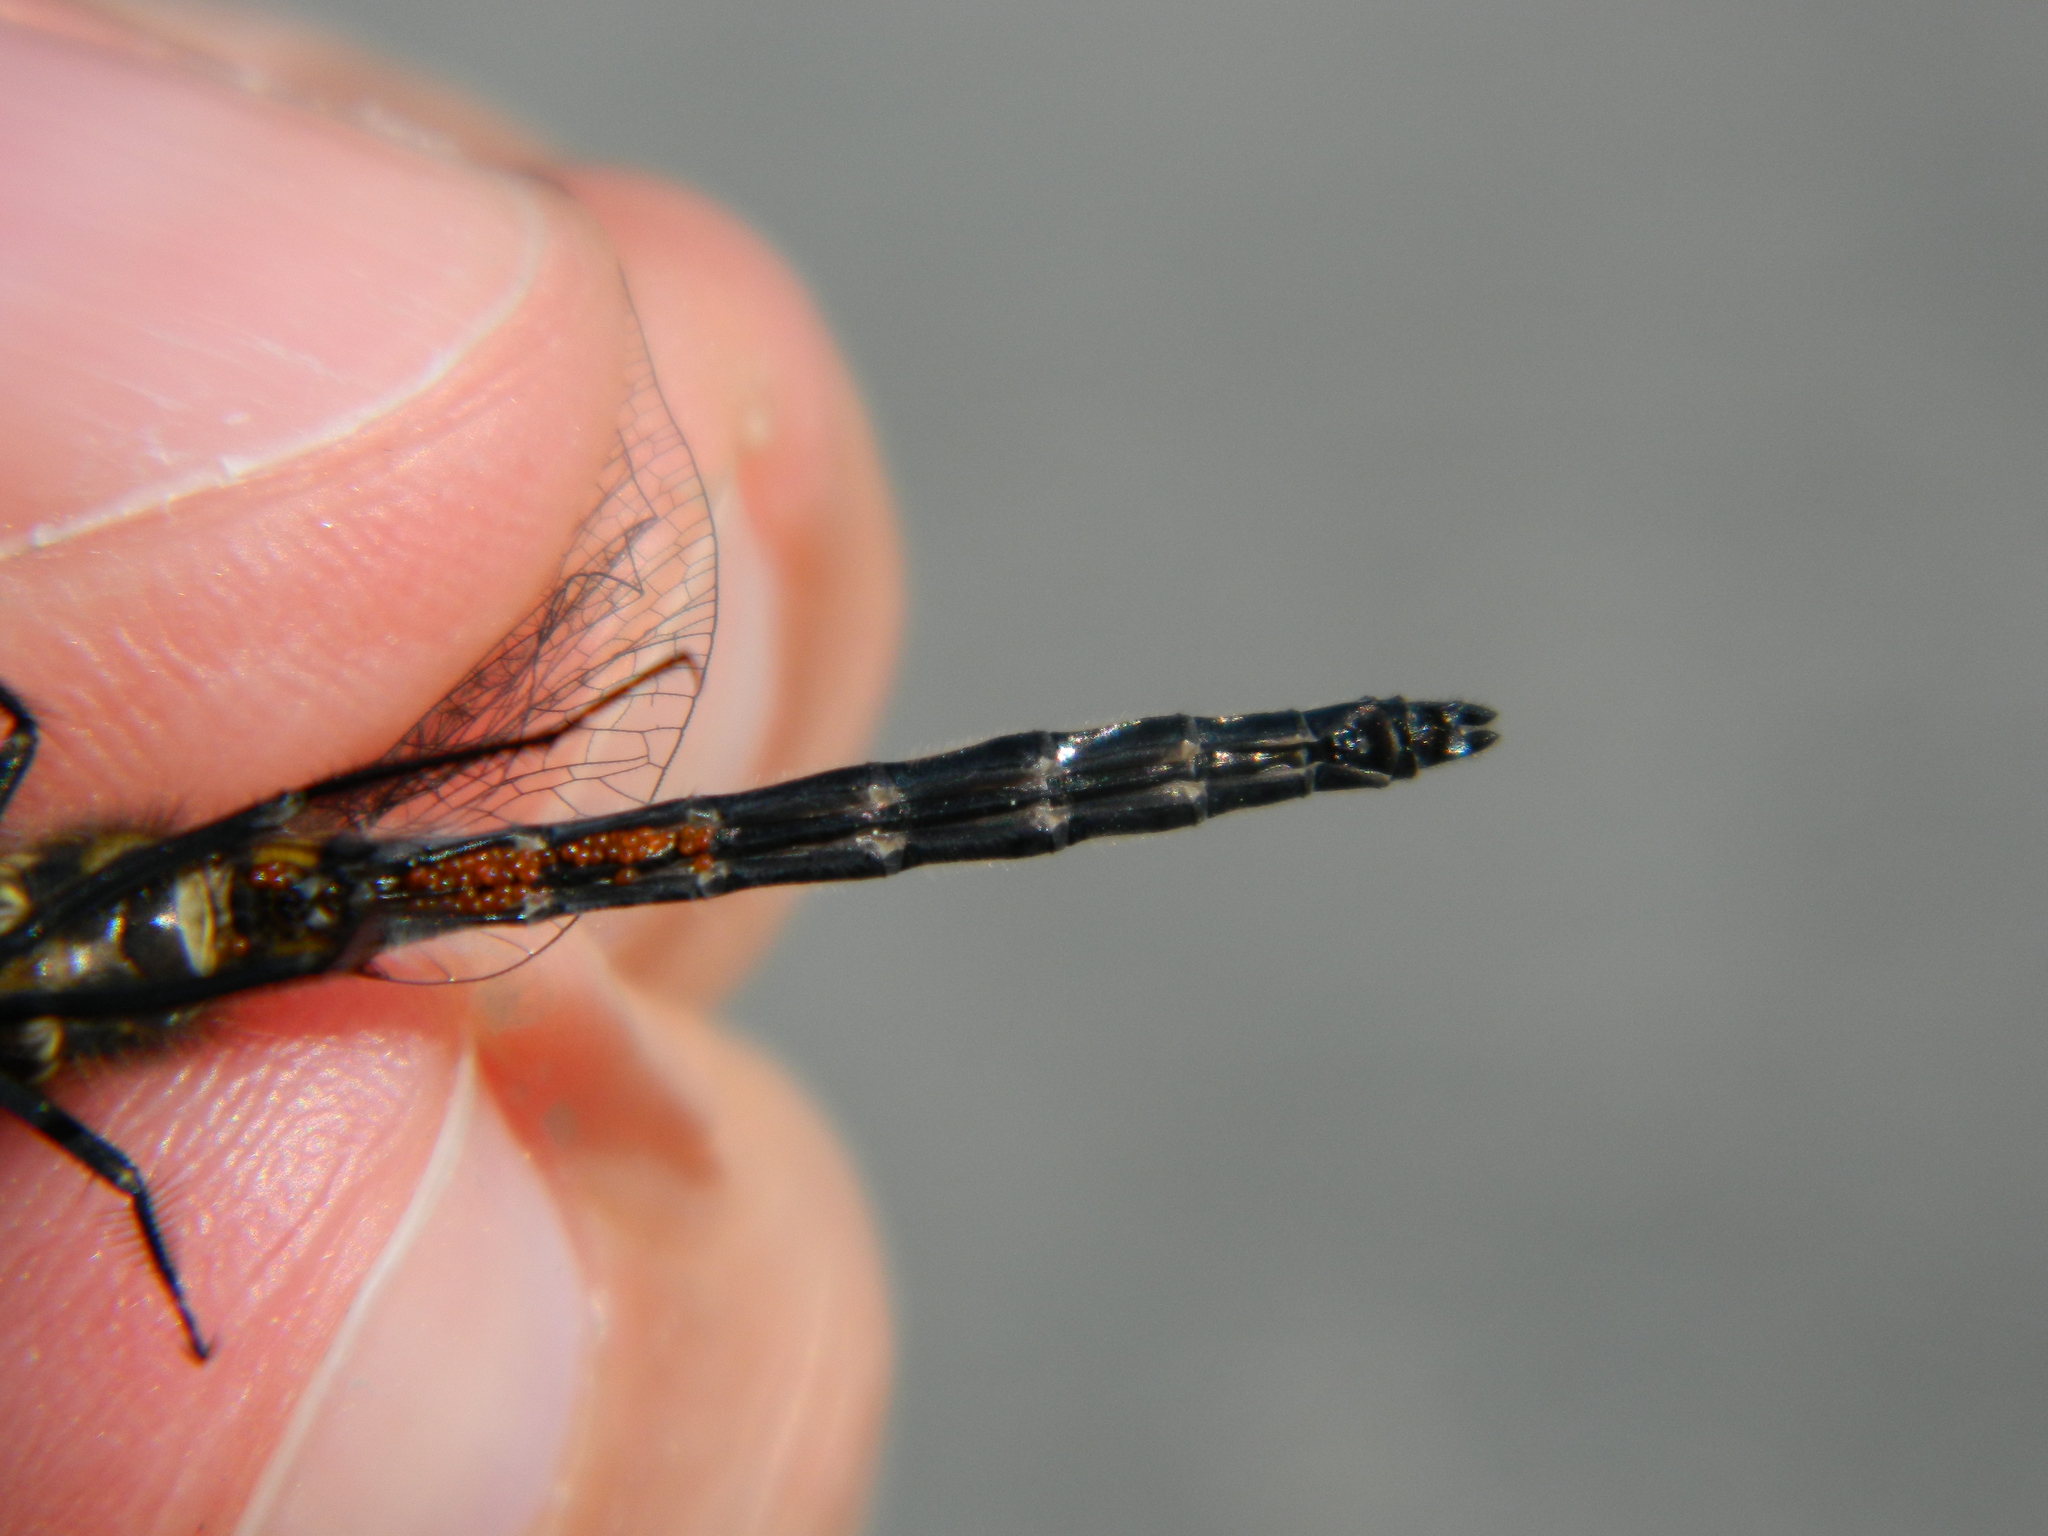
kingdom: Animalia
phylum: Arthropoda
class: Insecta
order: Odonata
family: Libellulidae
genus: Leucorrhinia
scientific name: Leucorrhinia hudsonica
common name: Hudsonian whiteface
